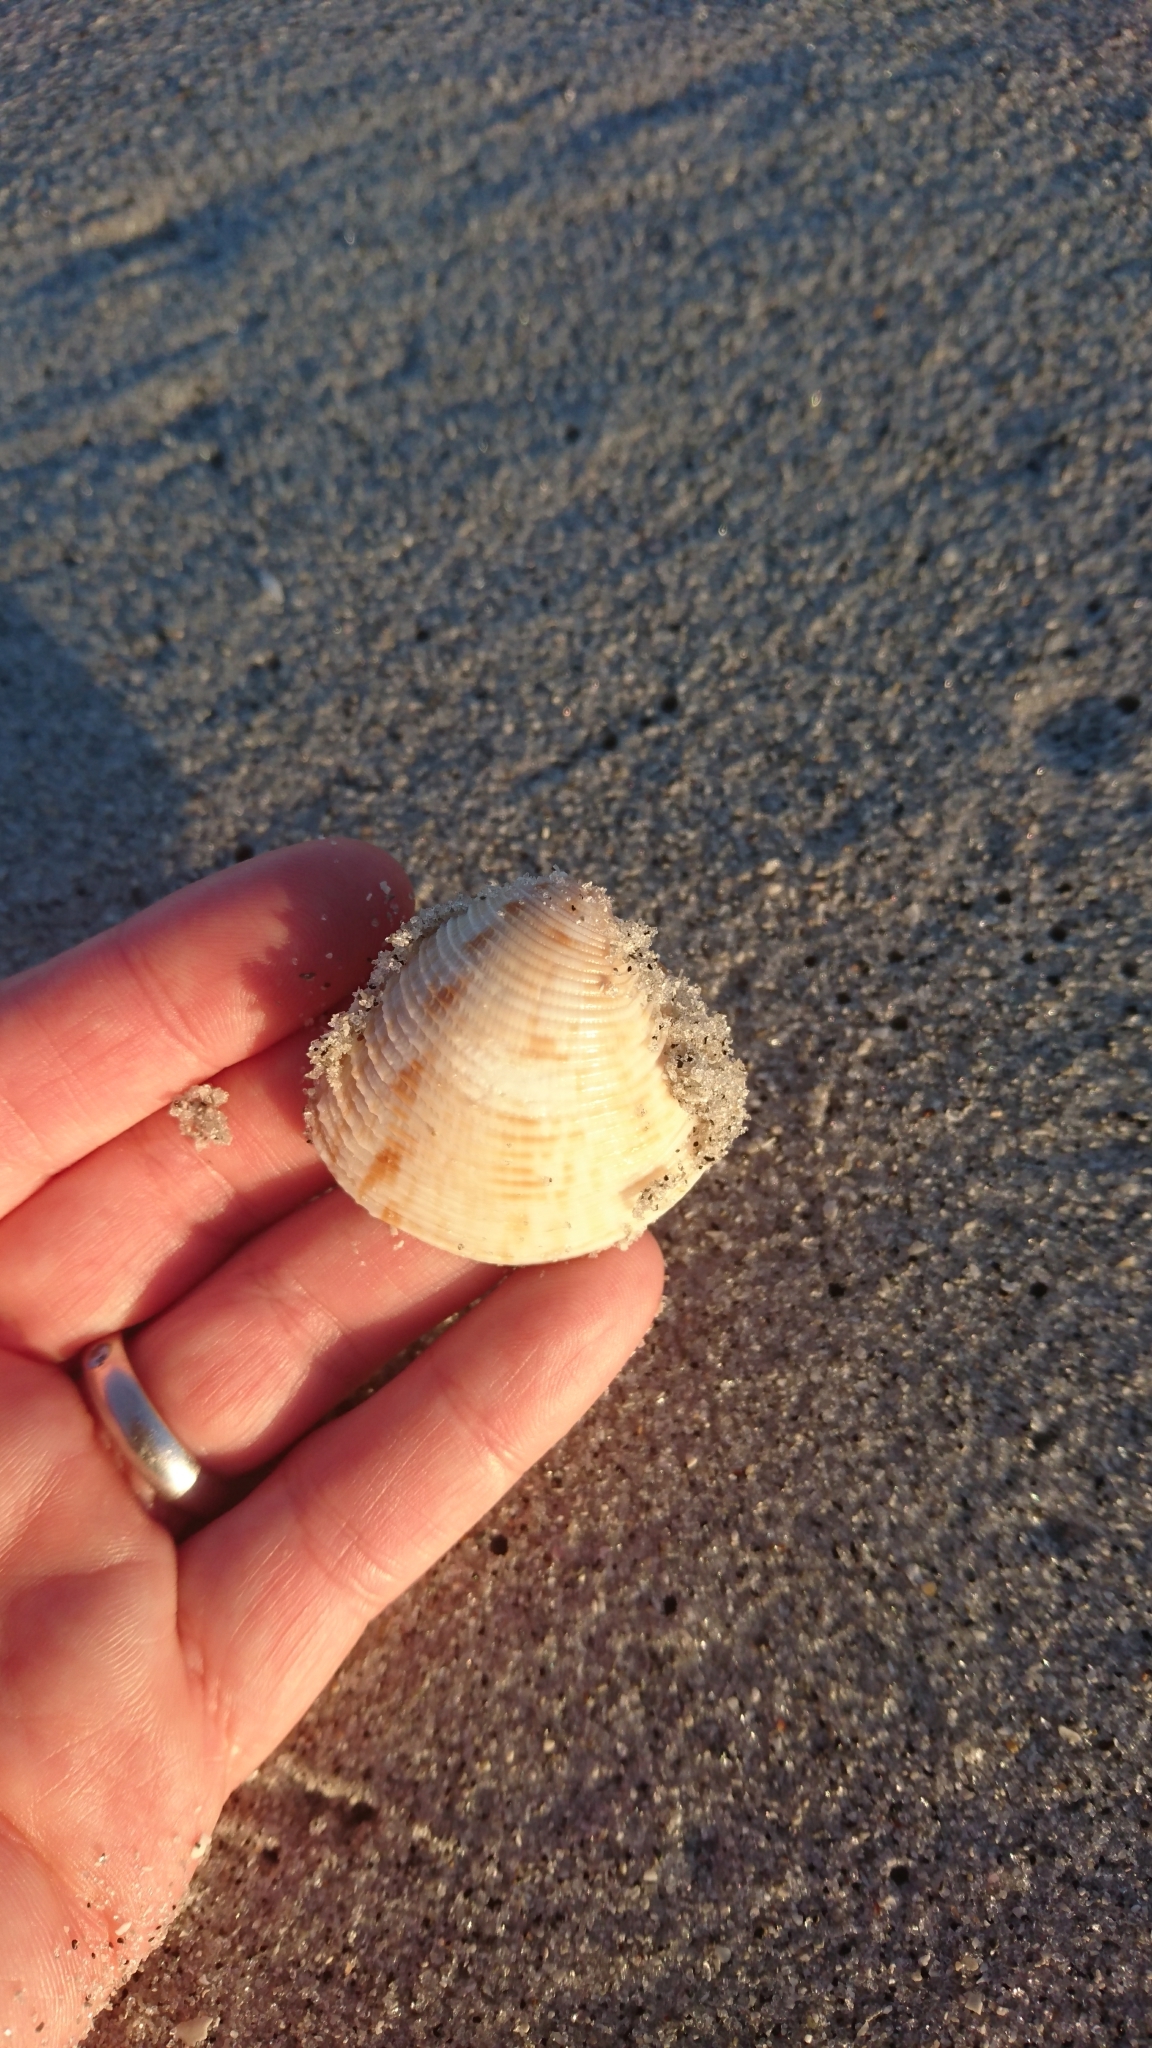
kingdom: Animalia
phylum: Mollusca
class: Bivalvia
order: Venerida
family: Veneridae
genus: Chionopsis
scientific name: Chionopsis intapurpurea
